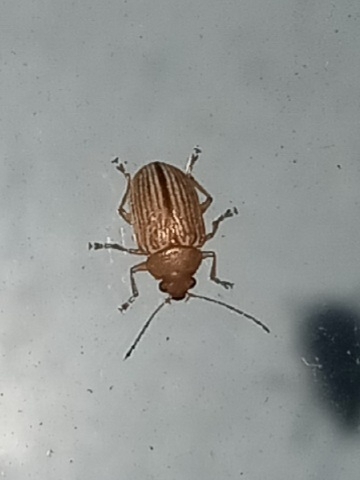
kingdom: Animalia
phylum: Arthropoda
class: Insecta
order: Coleoptera
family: Chrysomelidae
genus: Colaspis
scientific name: Colaspis brunnea
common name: Grape colaspis
